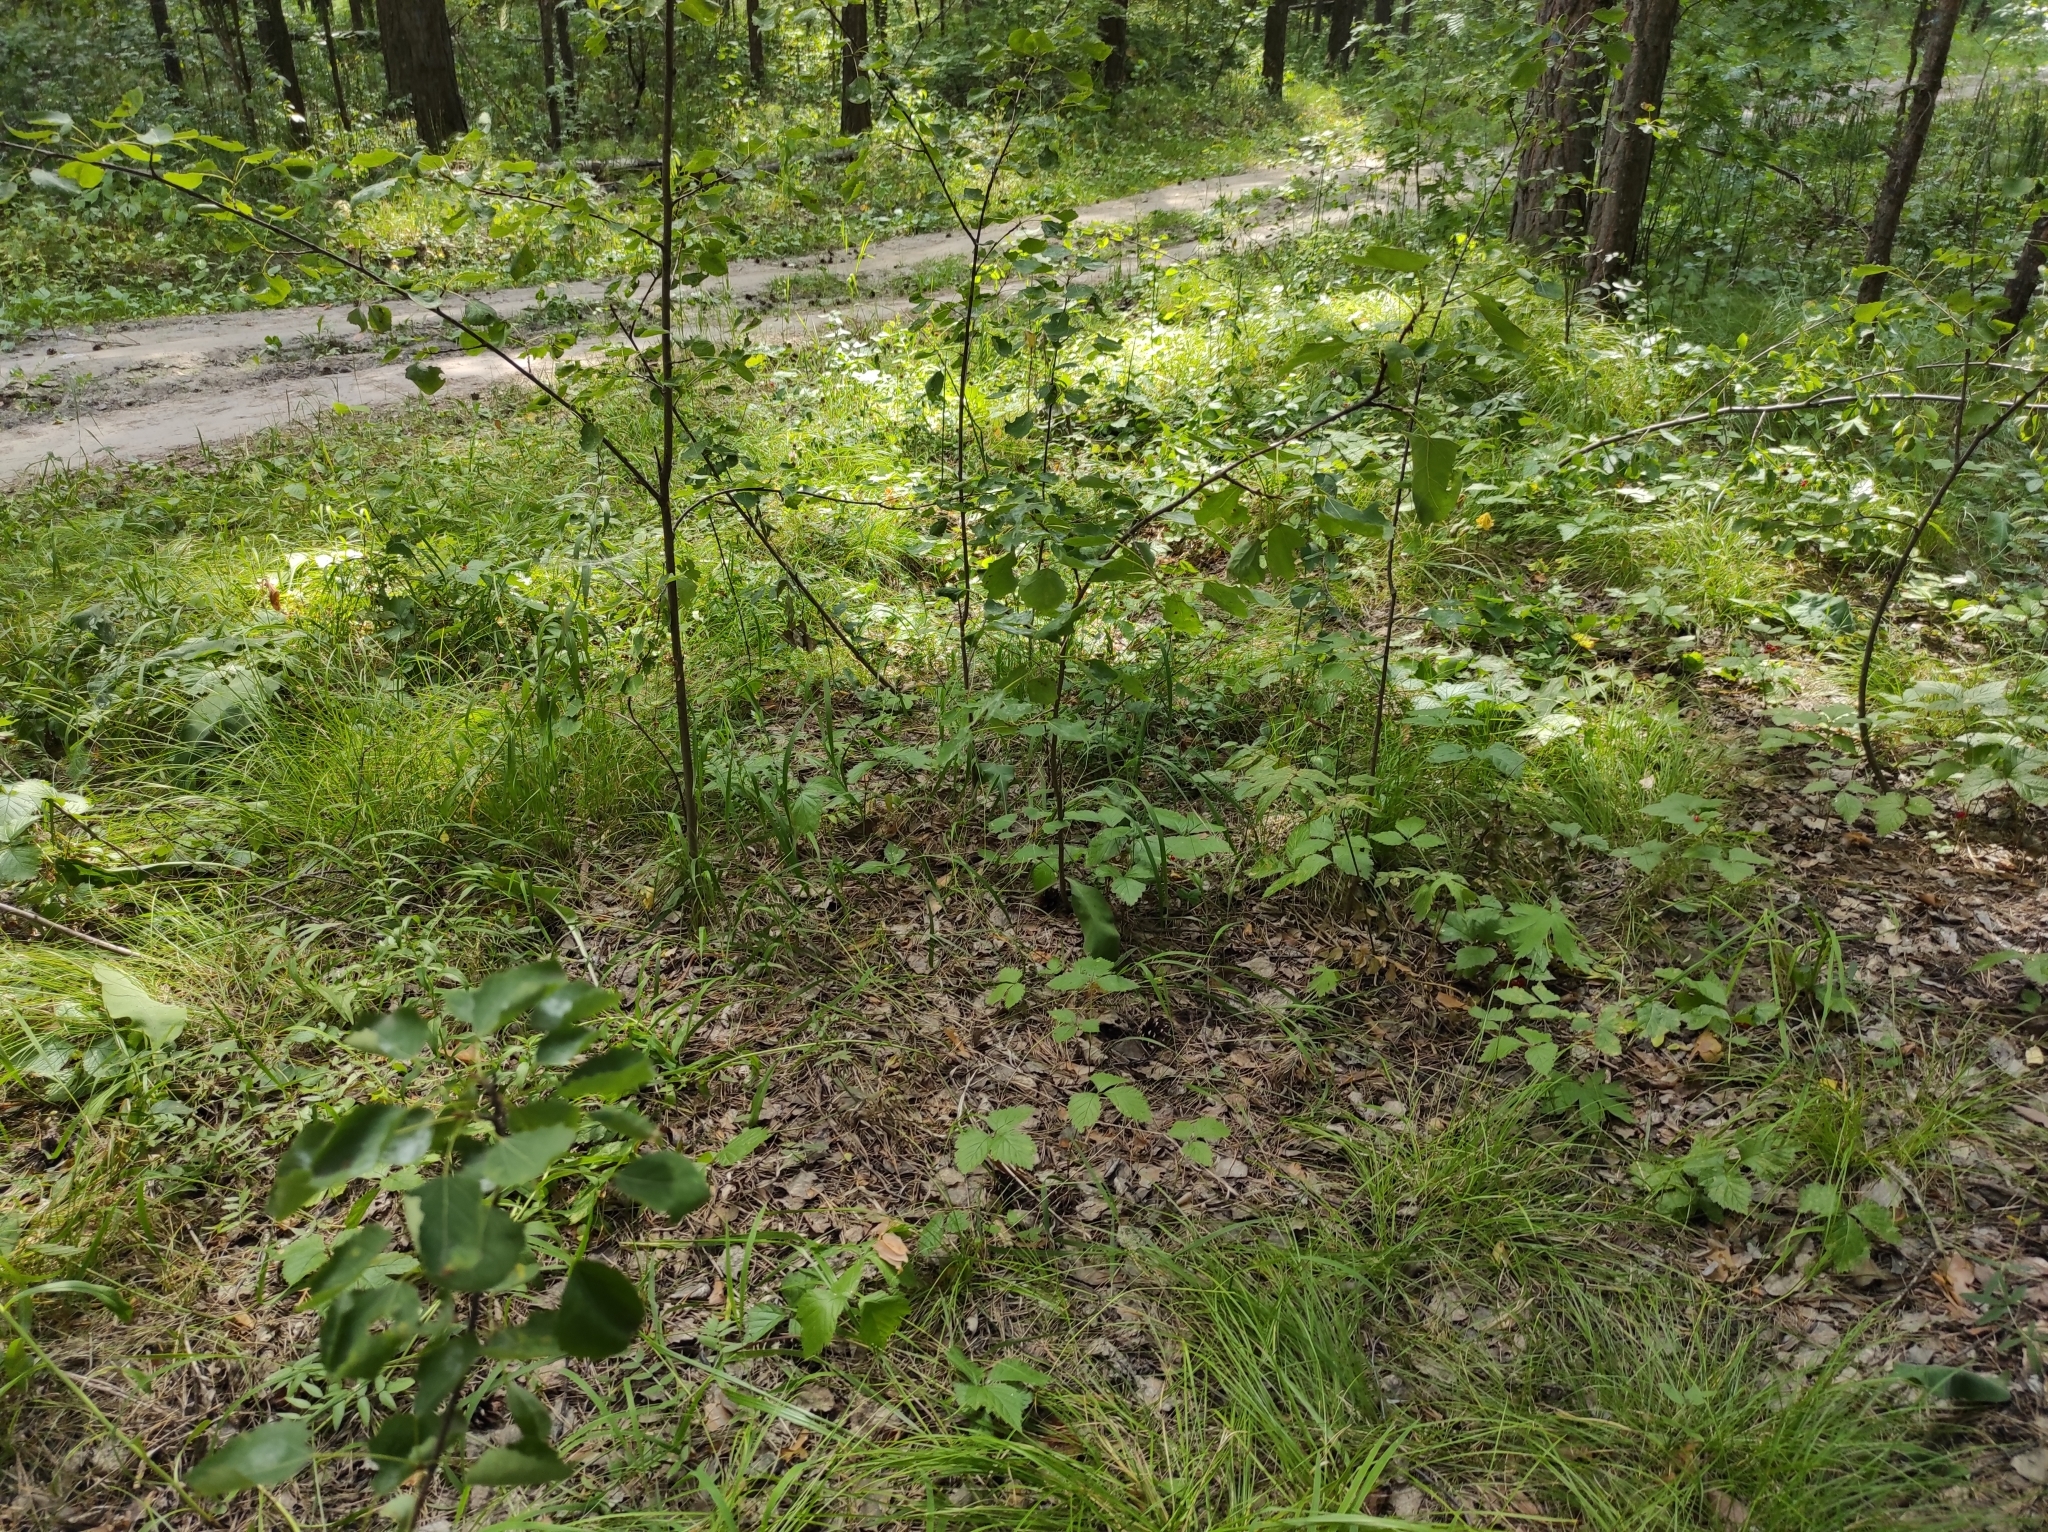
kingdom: Plantae
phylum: Tracheophyta
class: Liliopsida
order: Asparagales
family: Orchidaceae
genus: Hemipilia
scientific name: Hemipilia cucullata
